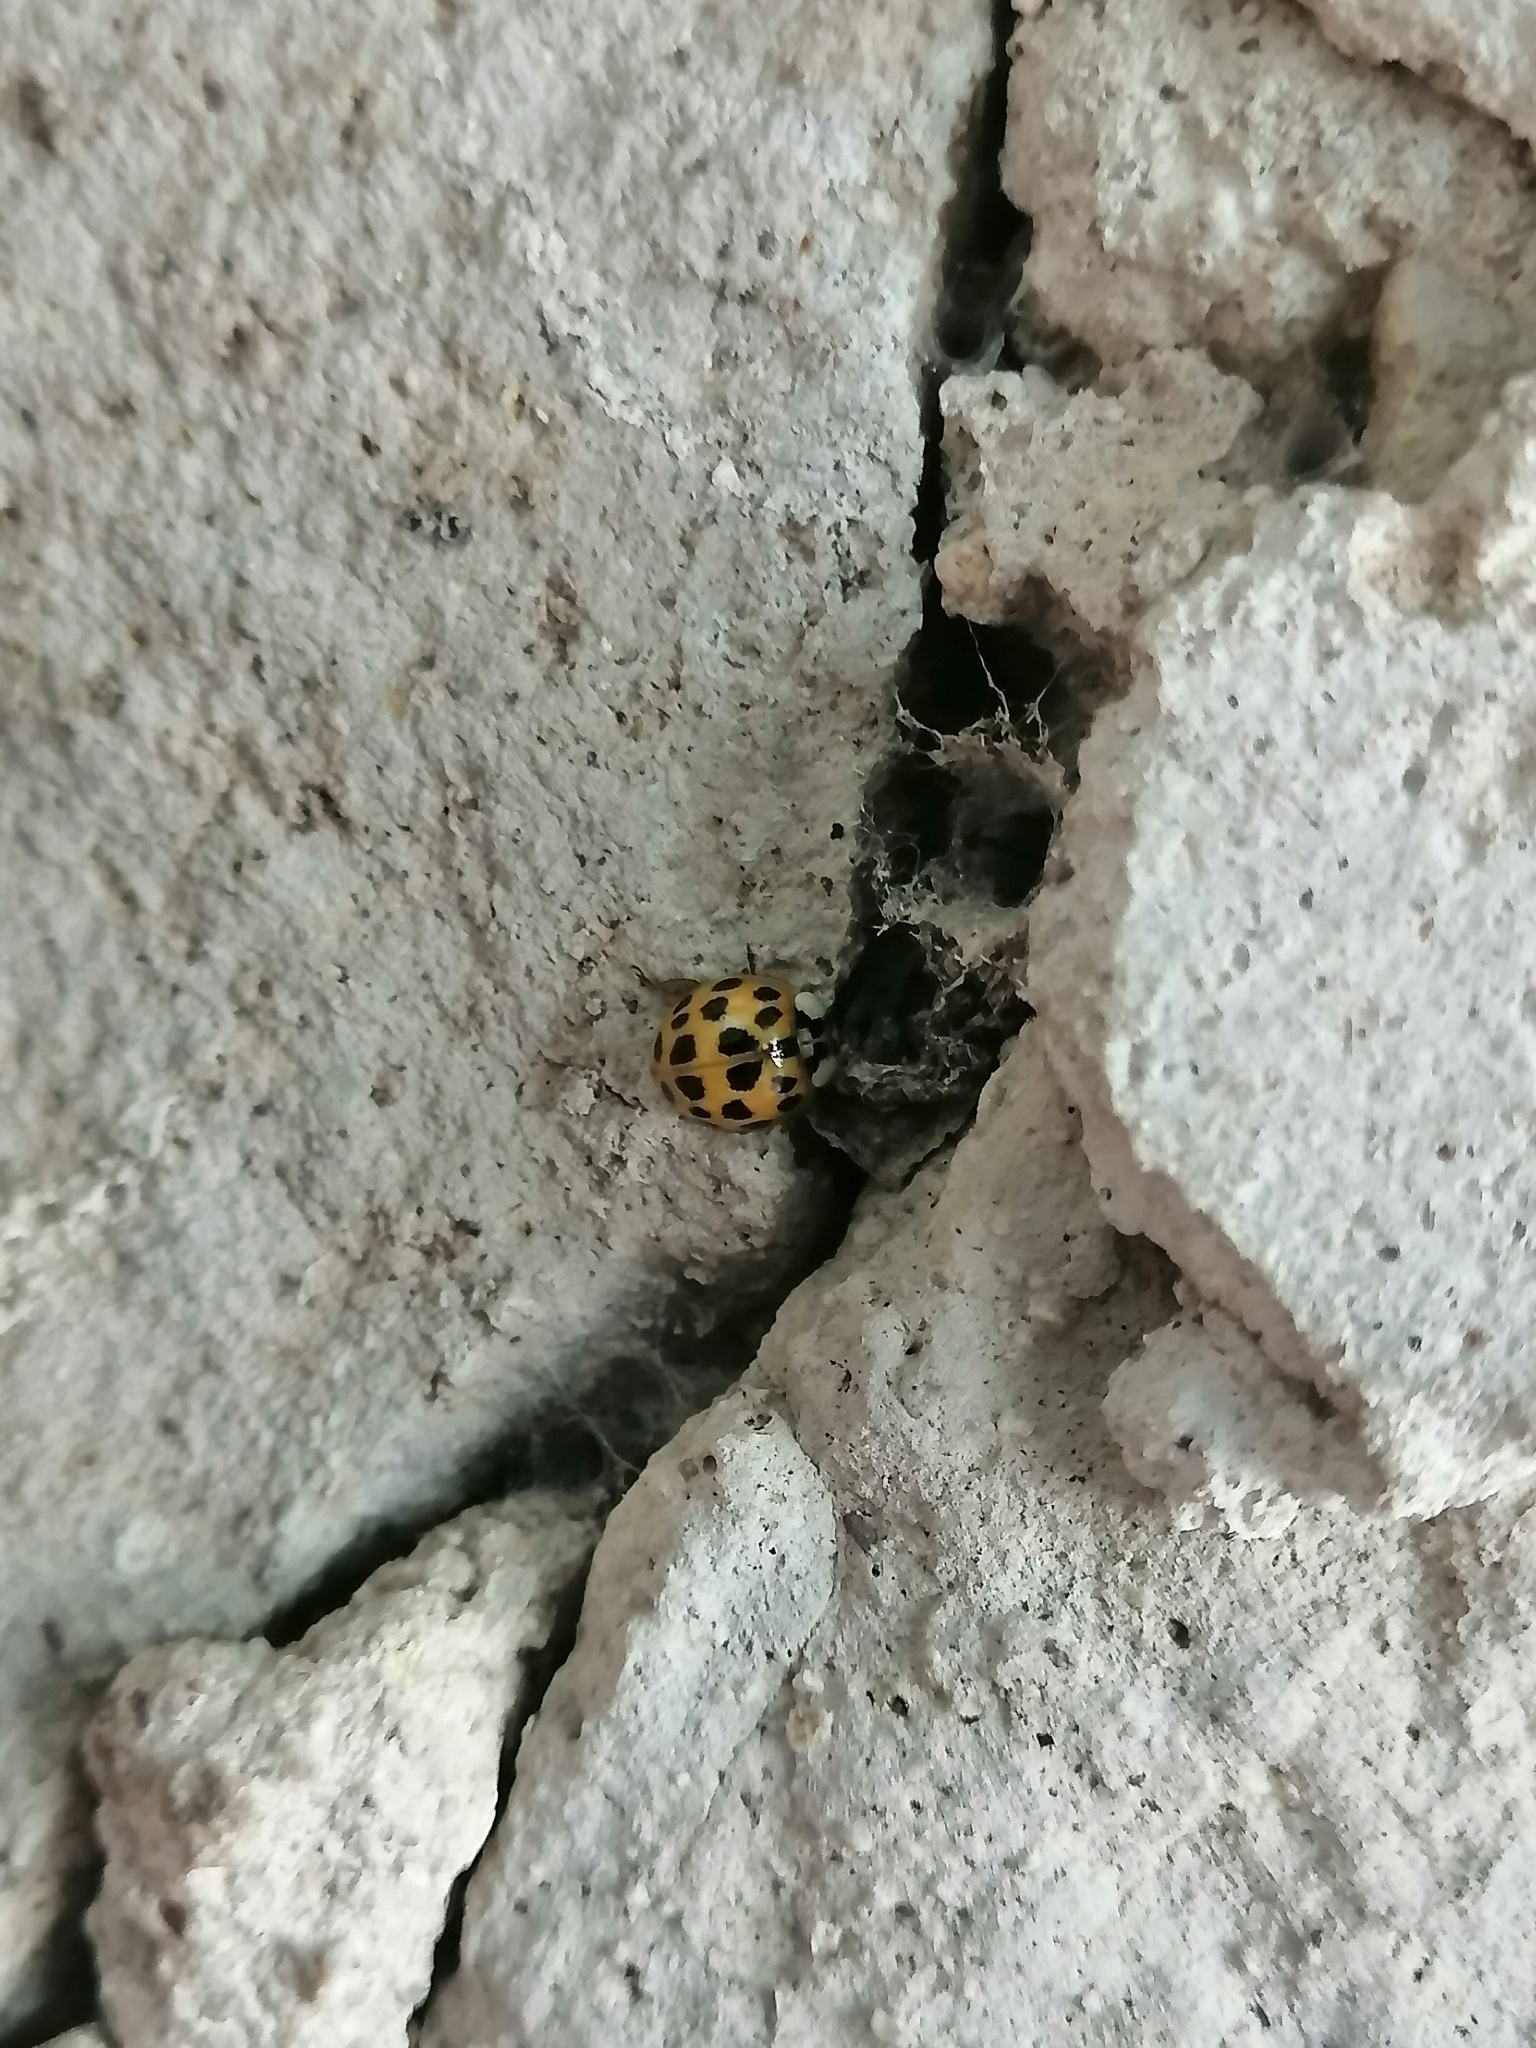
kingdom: Animalia
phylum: Arthropoda
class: Insecta
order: Coleoptera
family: Coccinellidae
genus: Harmonia
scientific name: Harmonia axyridis
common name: Harlequin ladybird
